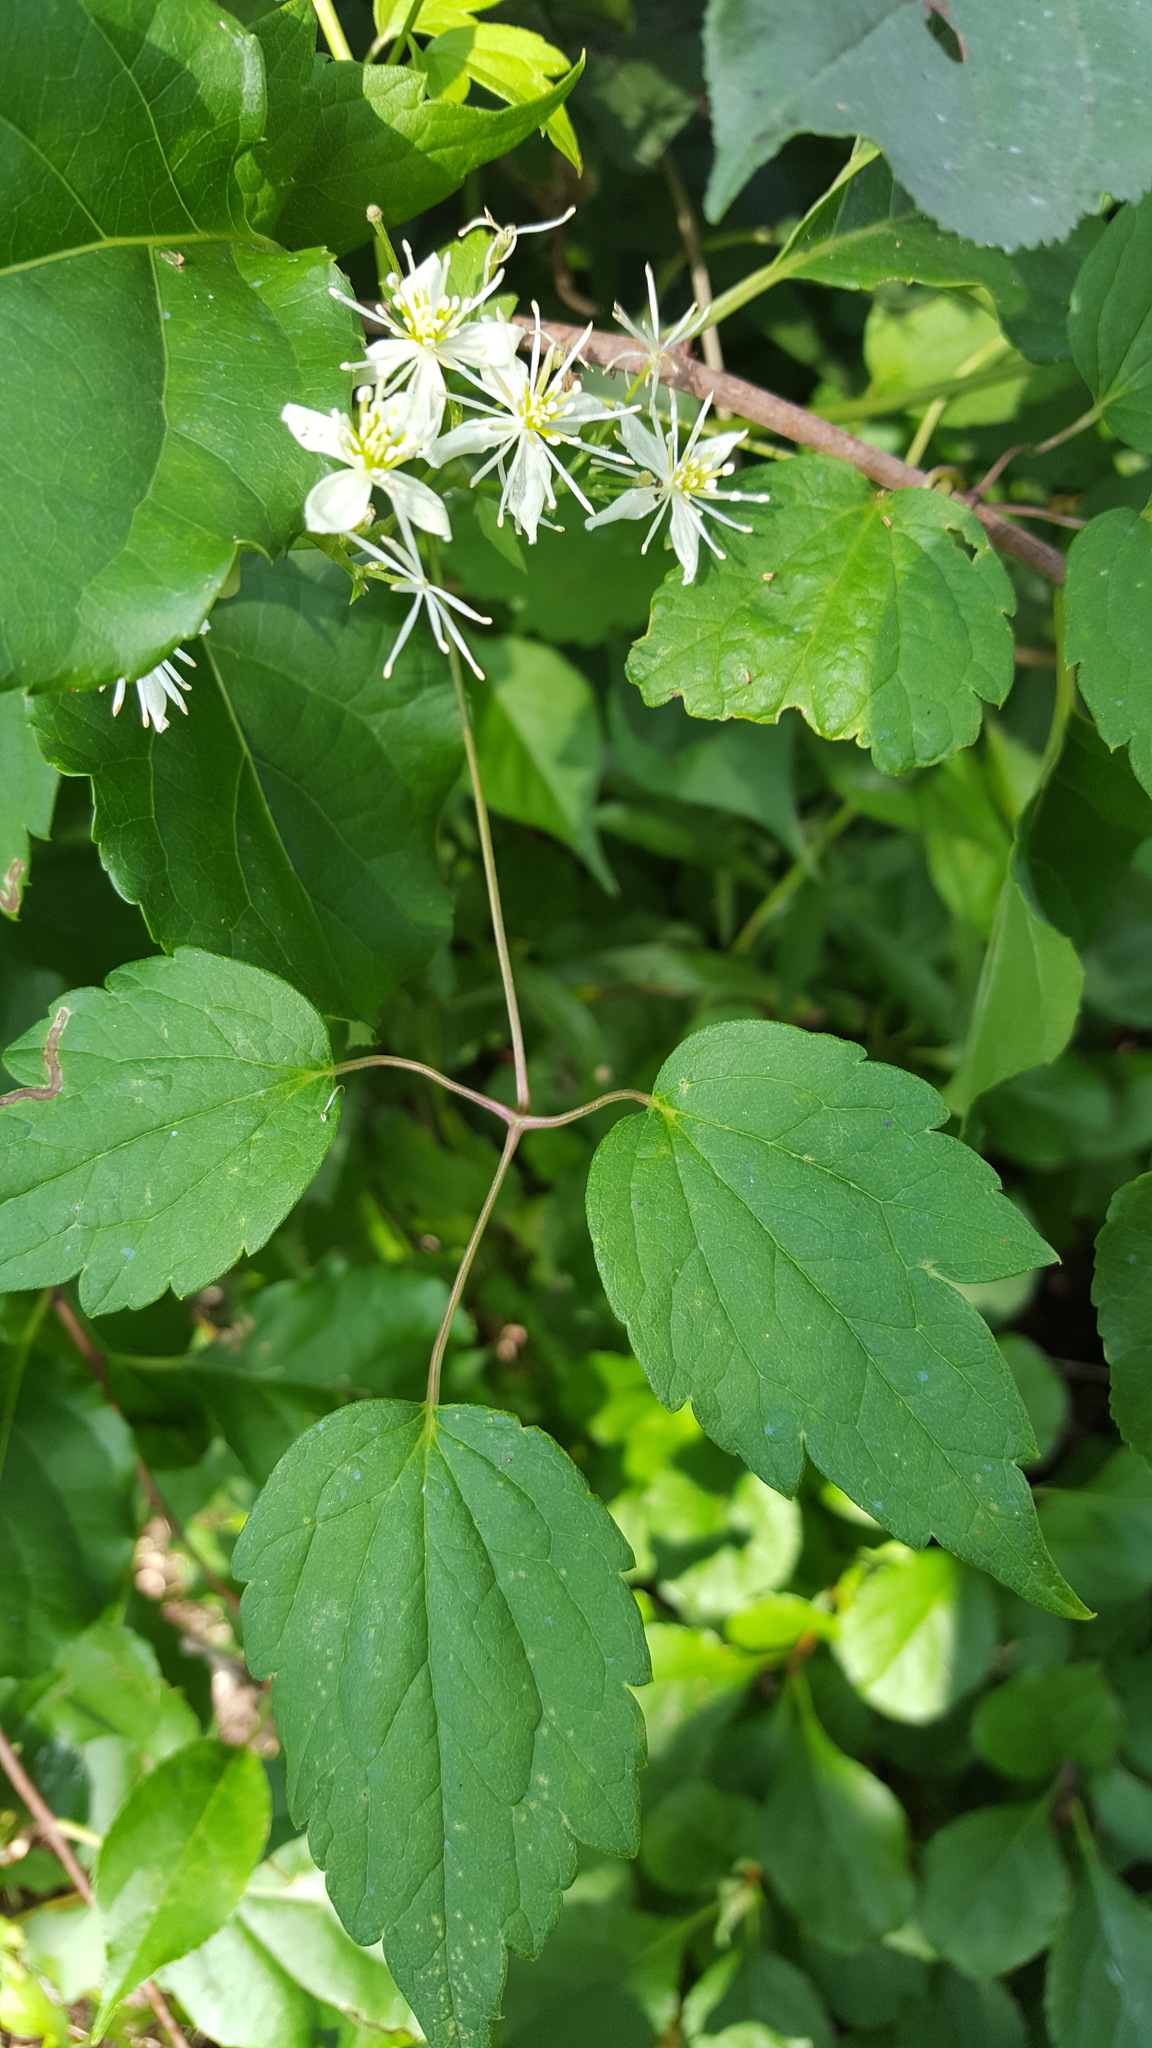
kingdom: Plantae
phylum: Tracheophyta
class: Magnoliopsida
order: Ranunculales
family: Ranunculaceae
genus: Clematis
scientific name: Clematis virginiana
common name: Virgin's-bower
